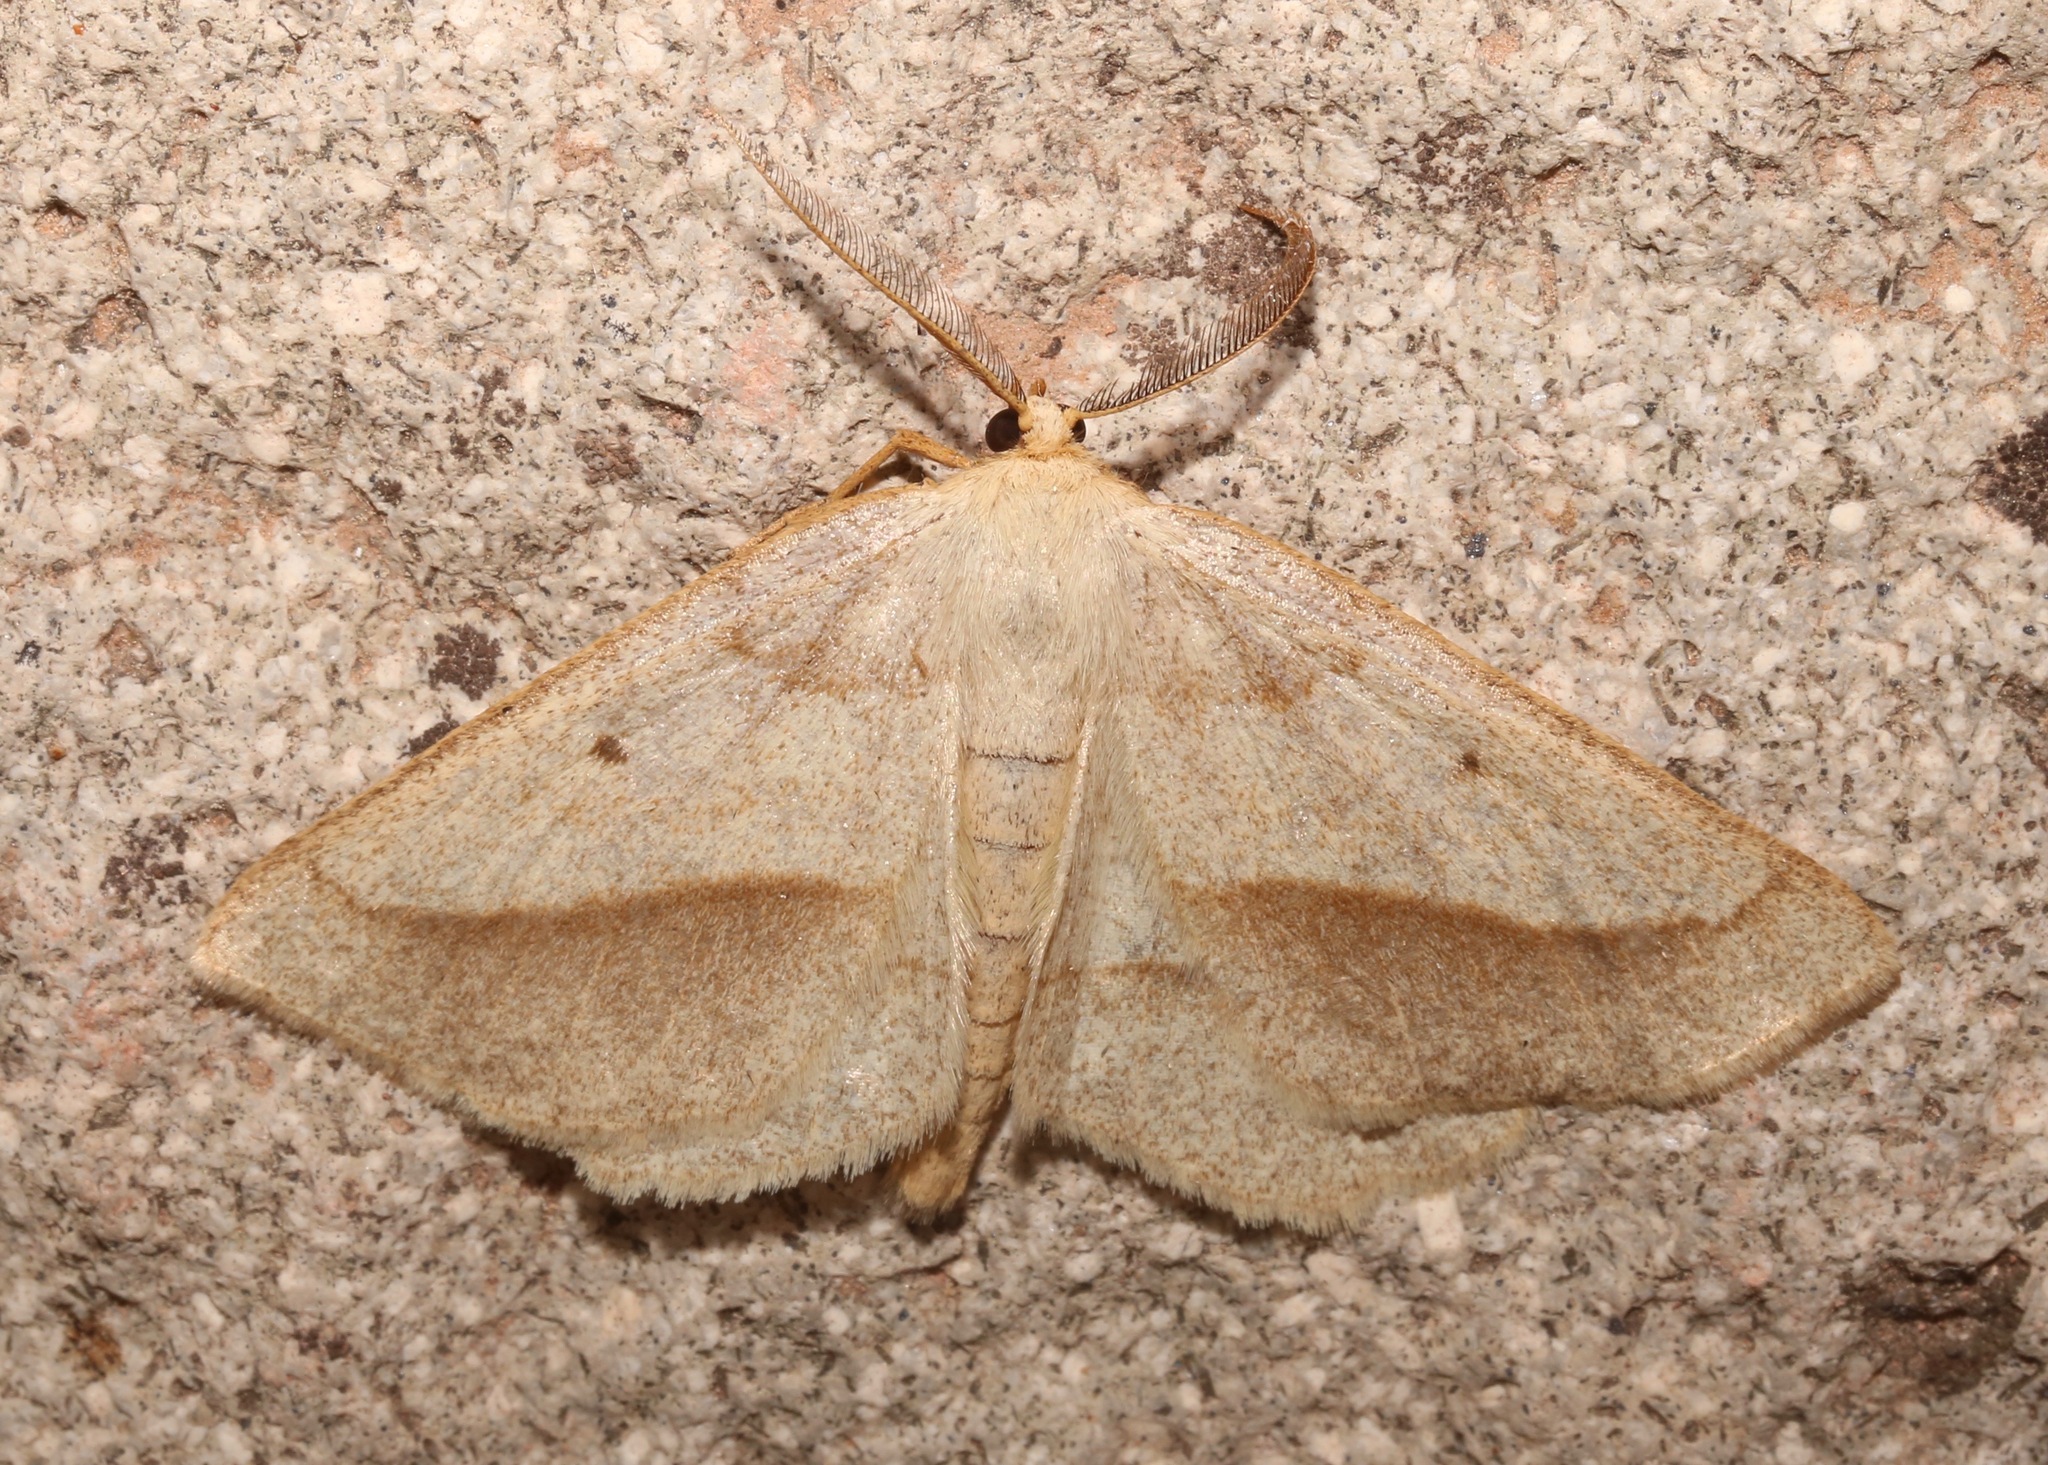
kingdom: Animalia
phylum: Arthropoda
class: Insecta
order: Lepidoptera
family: Geometridae
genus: Euchlaena
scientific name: Euchlaena irraria
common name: Least-marked euchlaena
